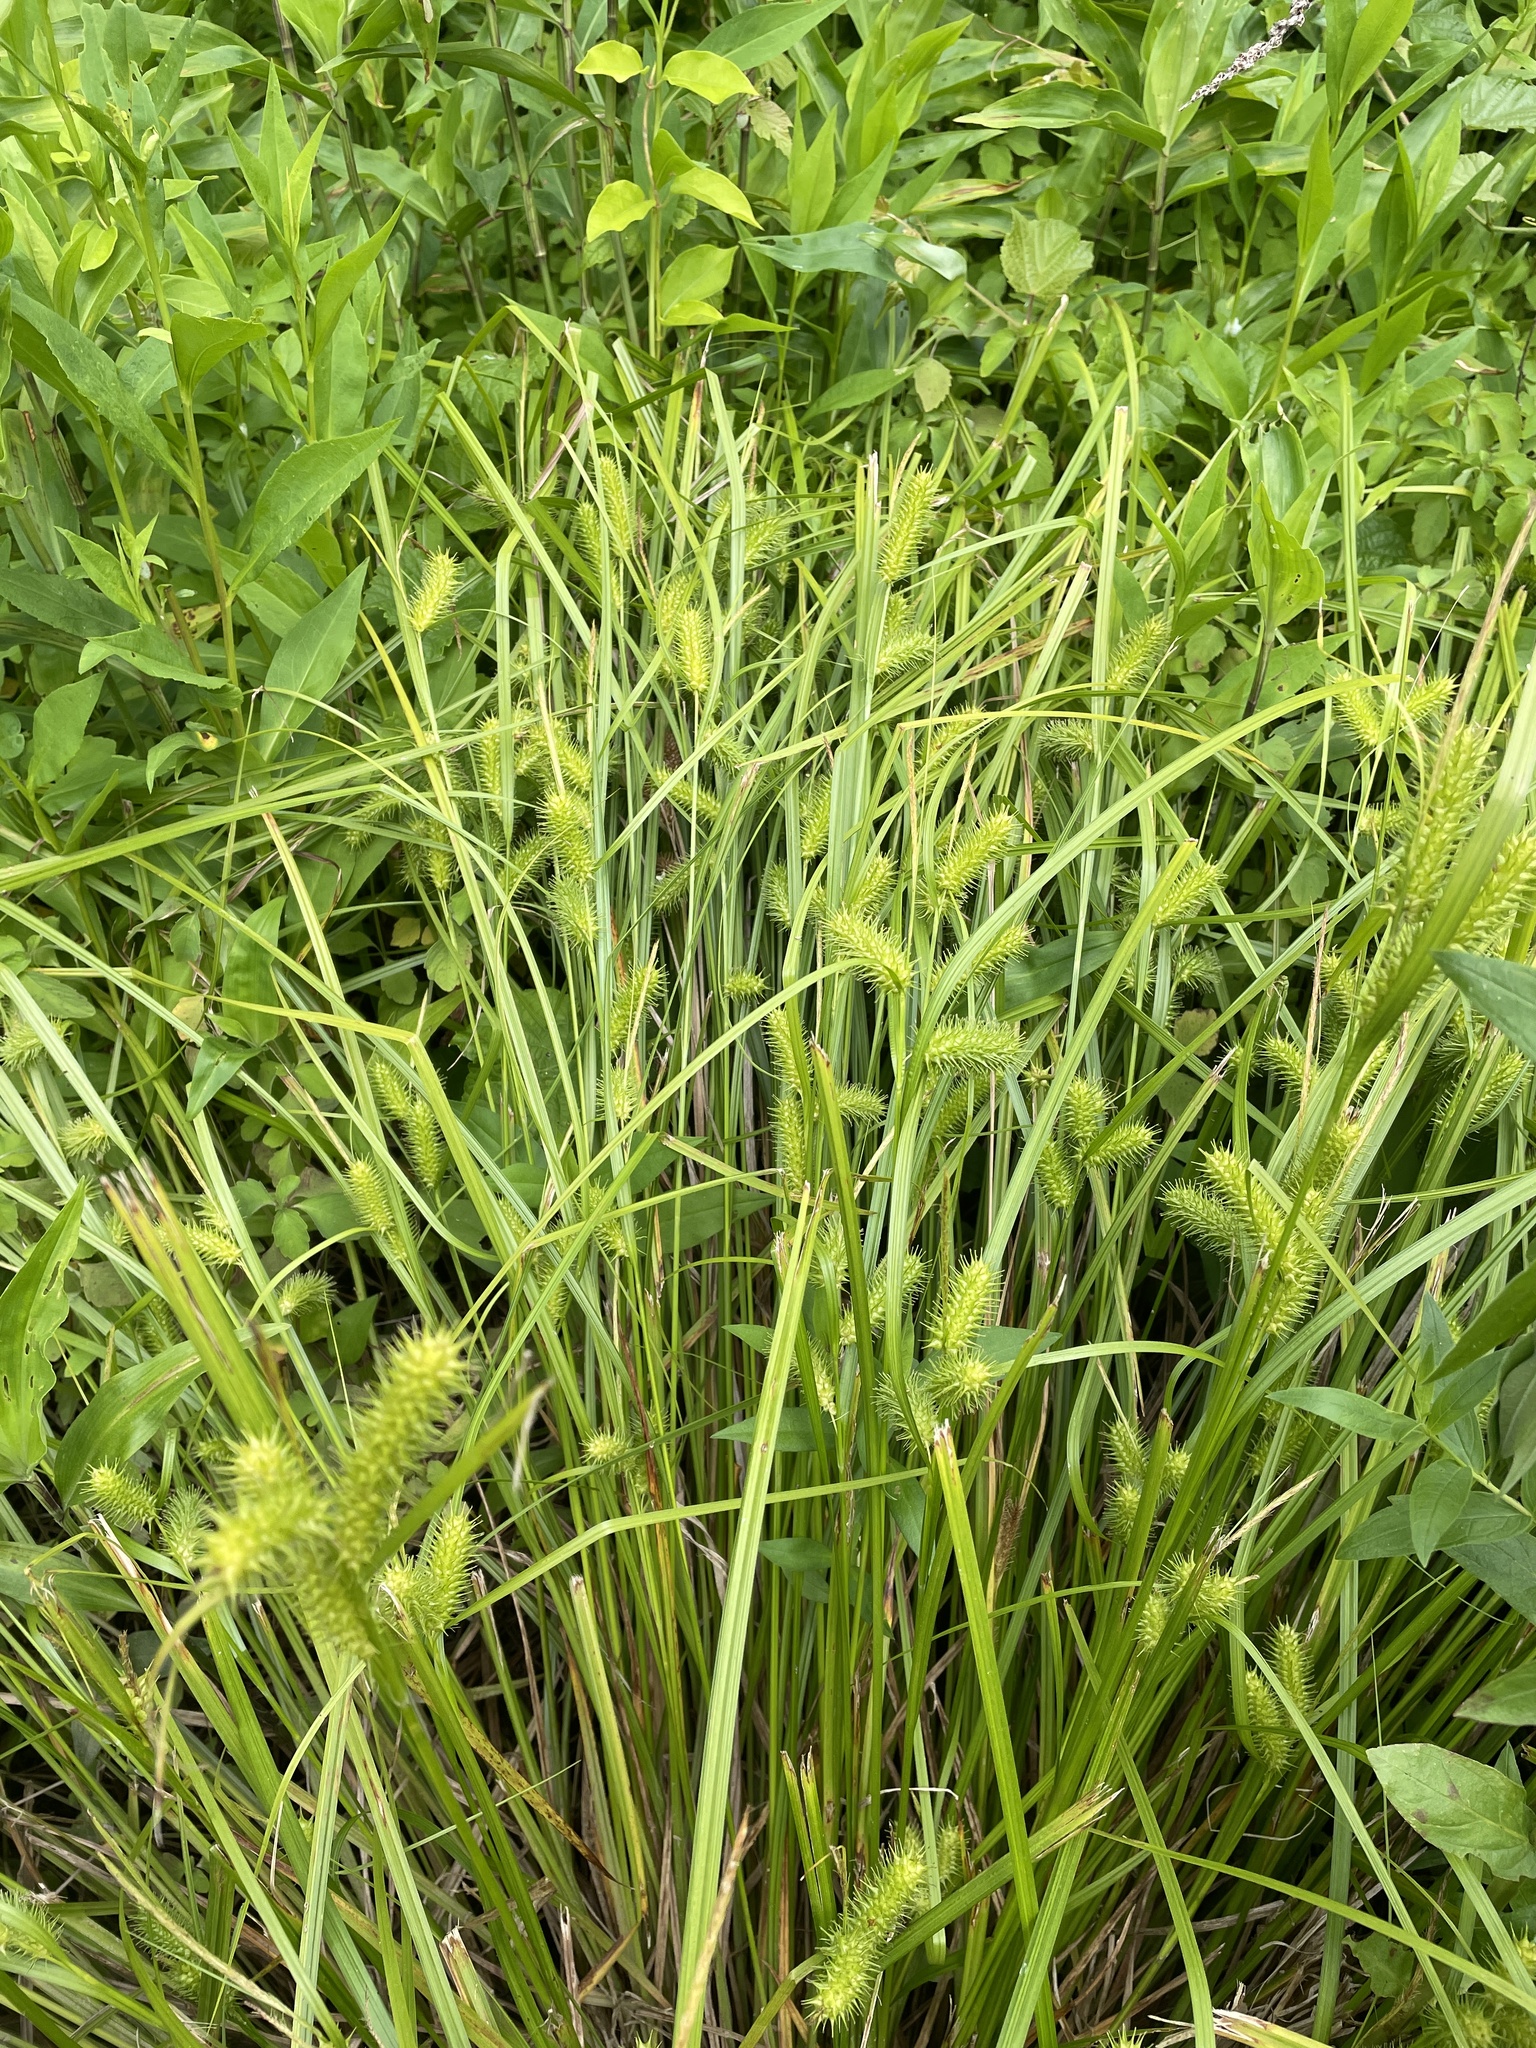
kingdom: Plantae
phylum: Tracheophyta
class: Liliopsida
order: Poales
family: Cyperaceae
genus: Carex
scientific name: Carex lurida
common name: Sallow sedge
